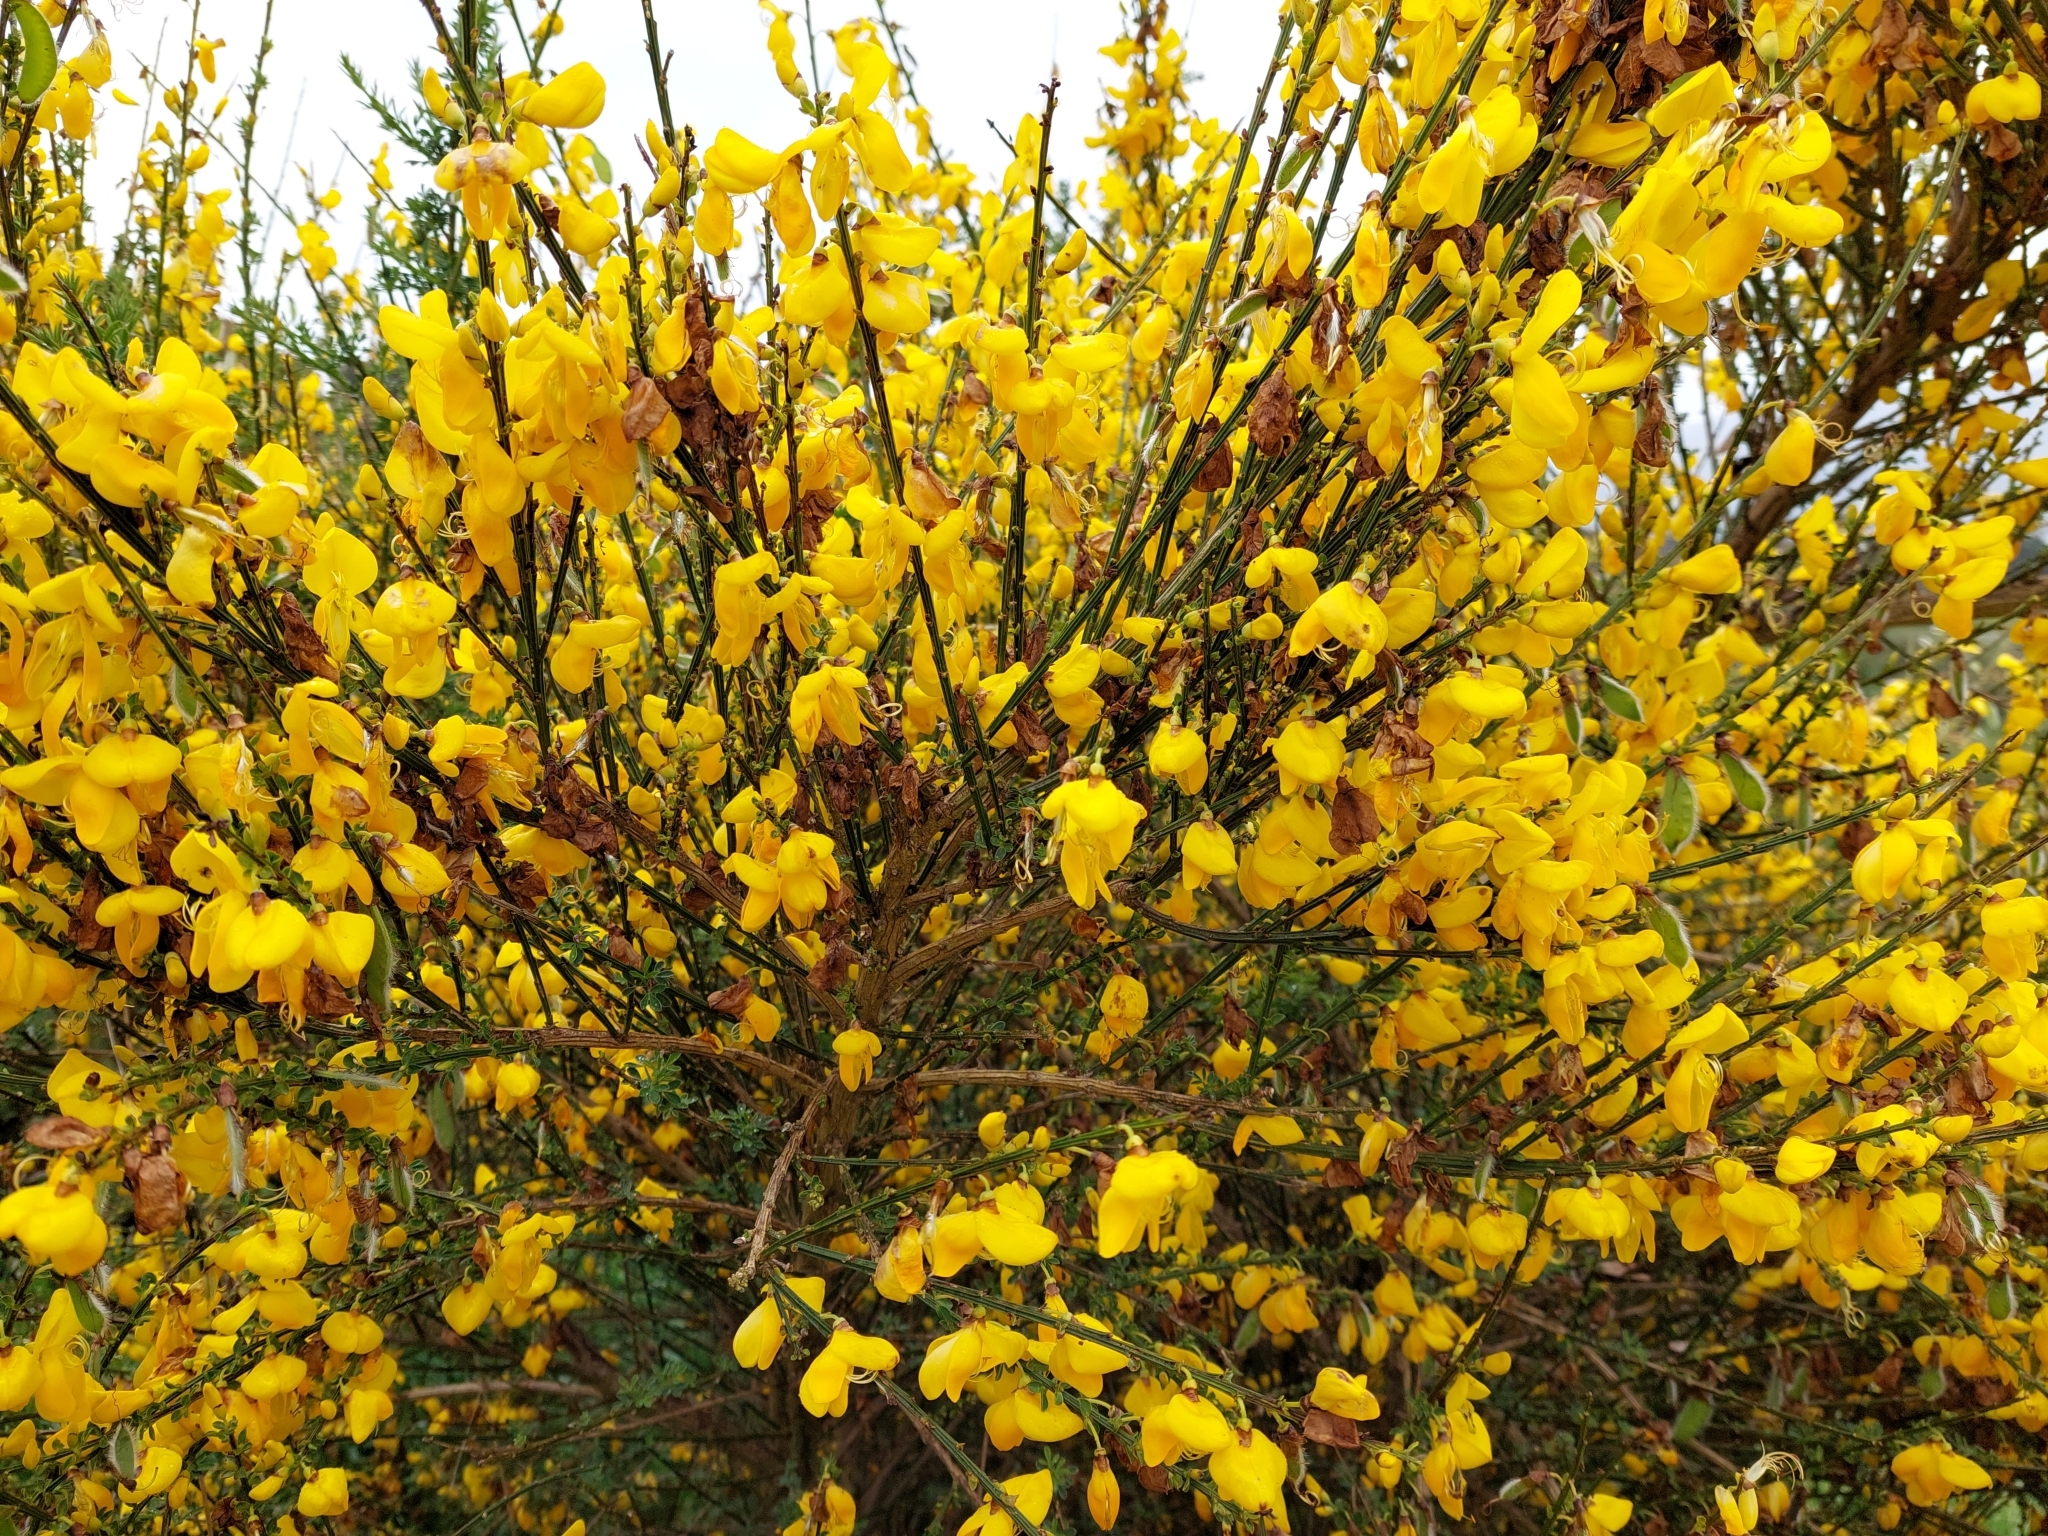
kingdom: Plantae
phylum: Tracheophyta
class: Magnoliopsida
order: Fabales
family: Fabaceae
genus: Cytisus
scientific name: Cytisus scoparius
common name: Scotch broom
